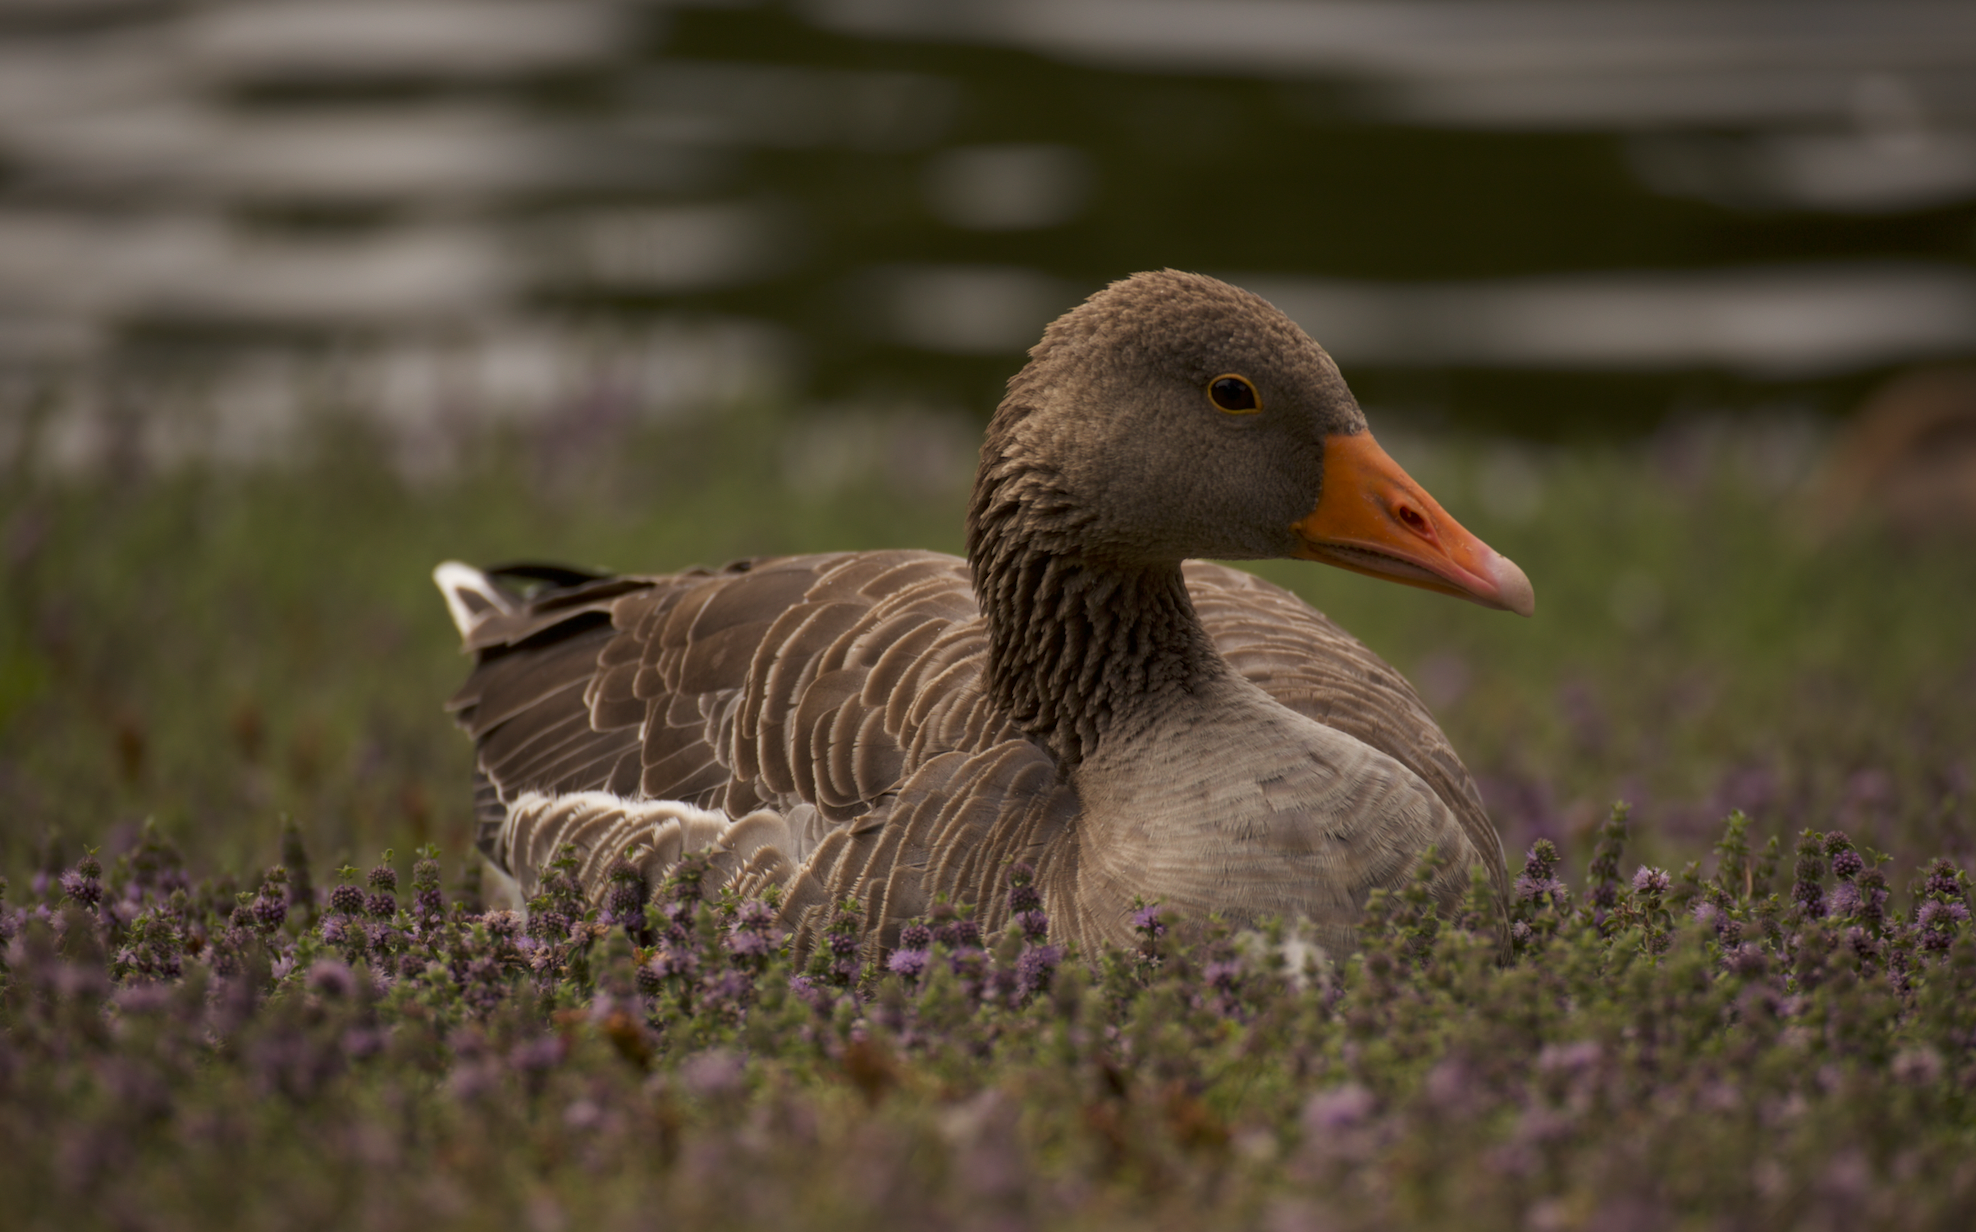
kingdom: Animalia
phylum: Chordata
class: Aves
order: Anseriformes
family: Anatidae
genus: Anser
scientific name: Anser anser
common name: Greylag goose
